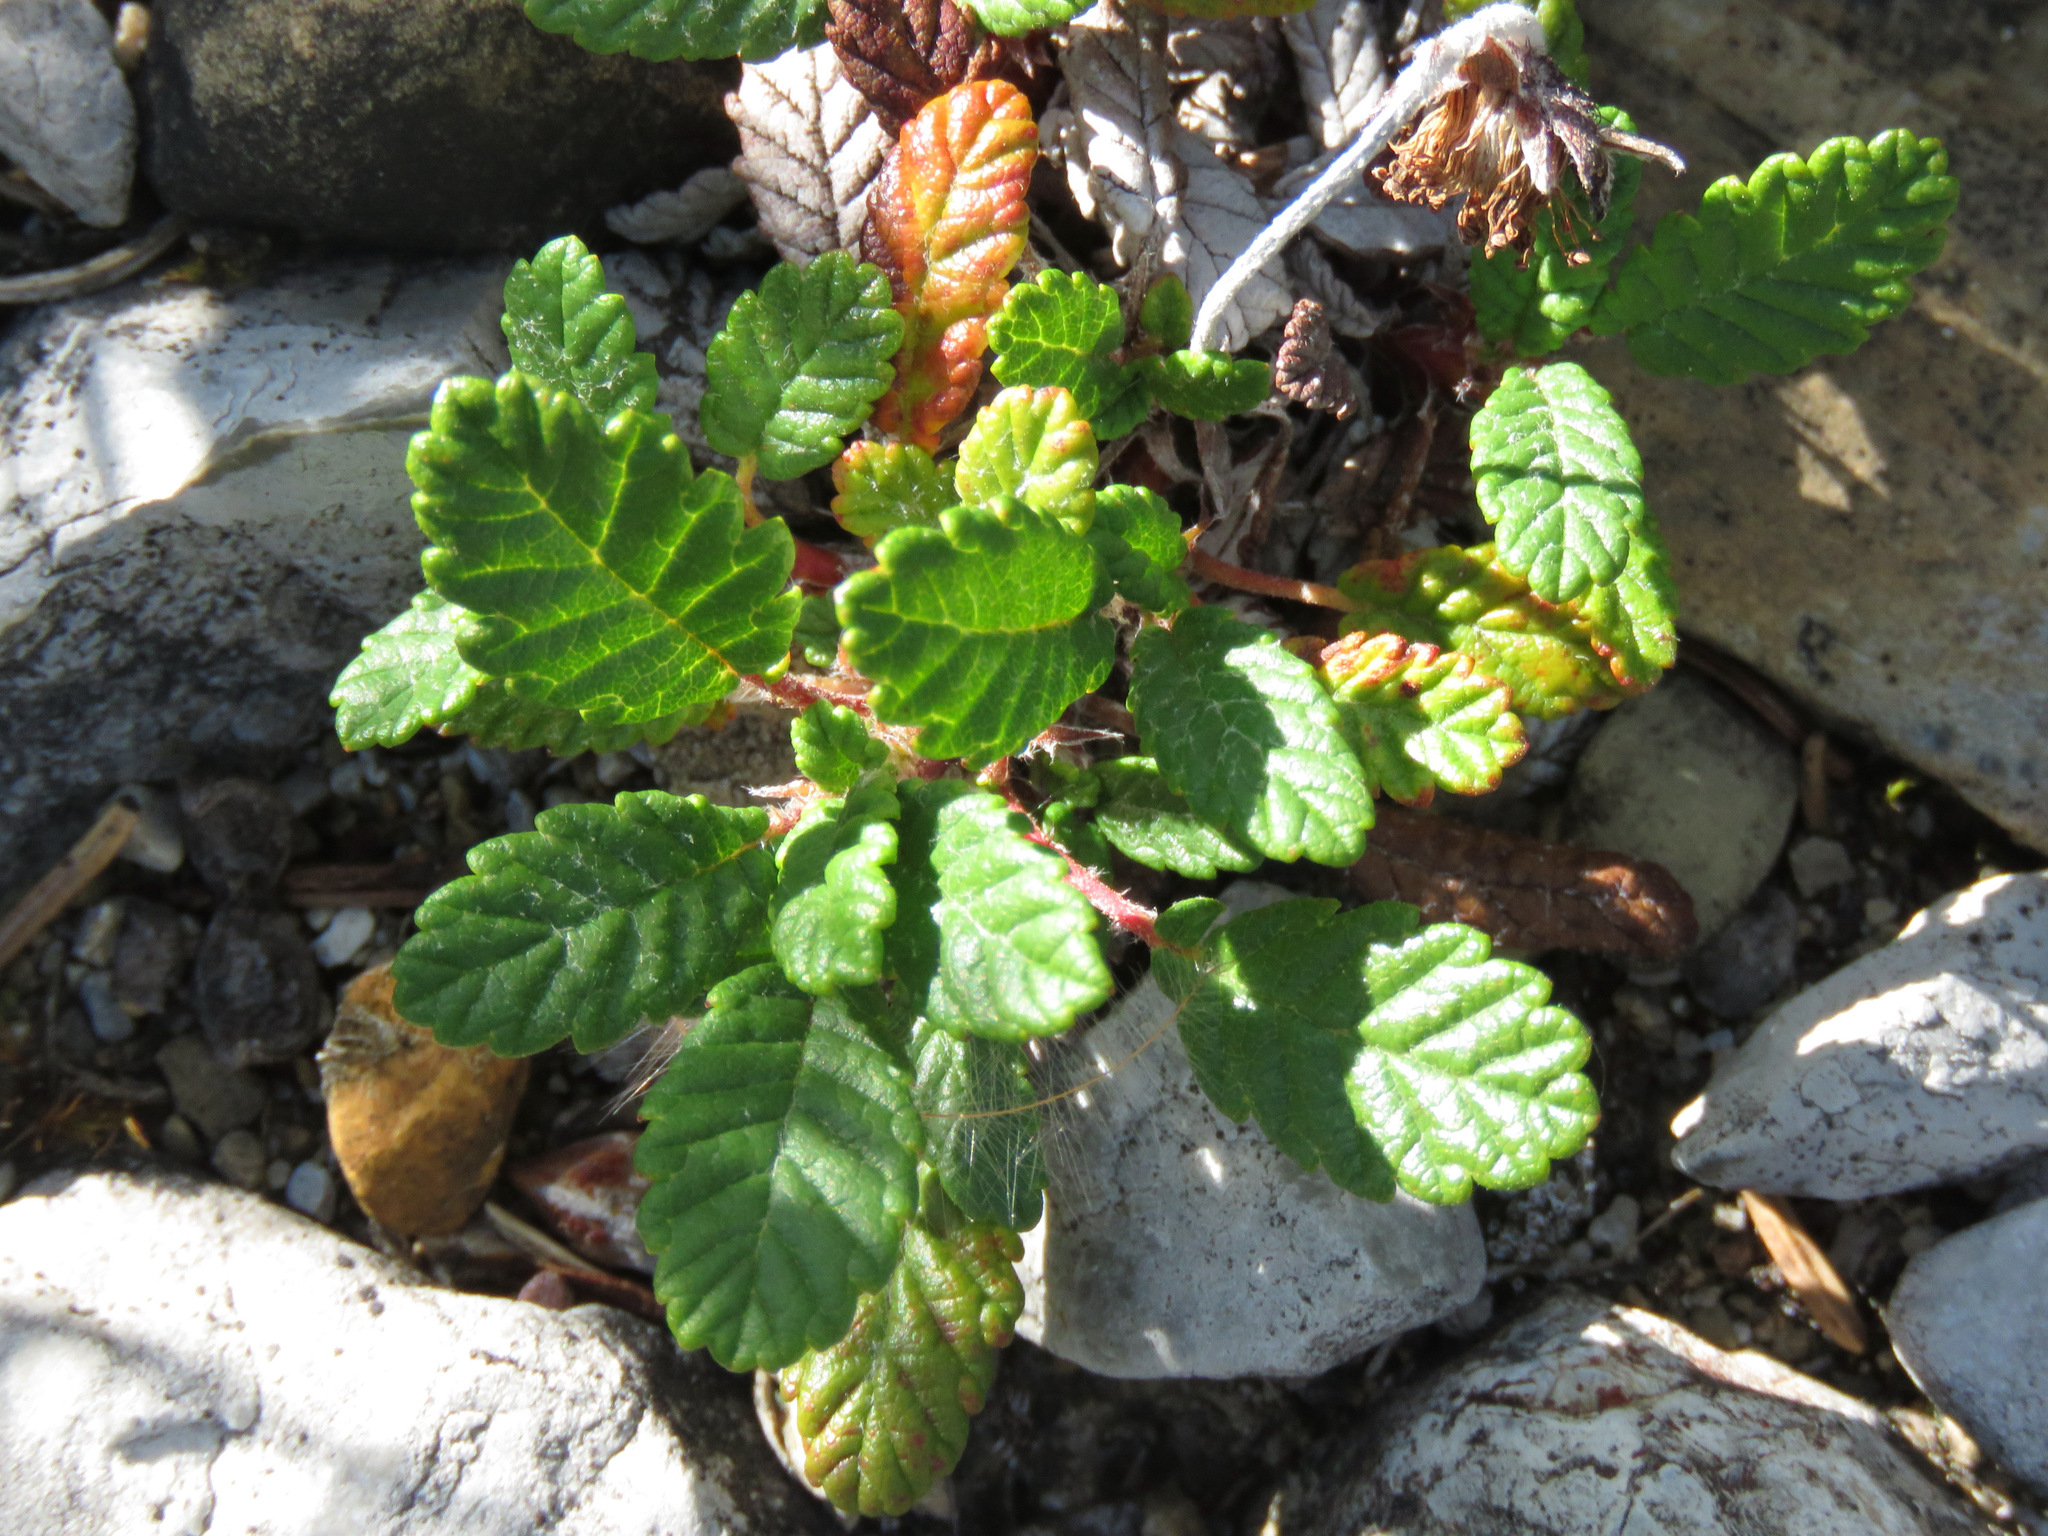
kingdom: Plantae
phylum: Tracheophyta
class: Magnoliopsida
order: Rosales
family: Rosaceae
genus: Dryas
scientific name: Dryas drummondii
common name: Drummond's dryad
